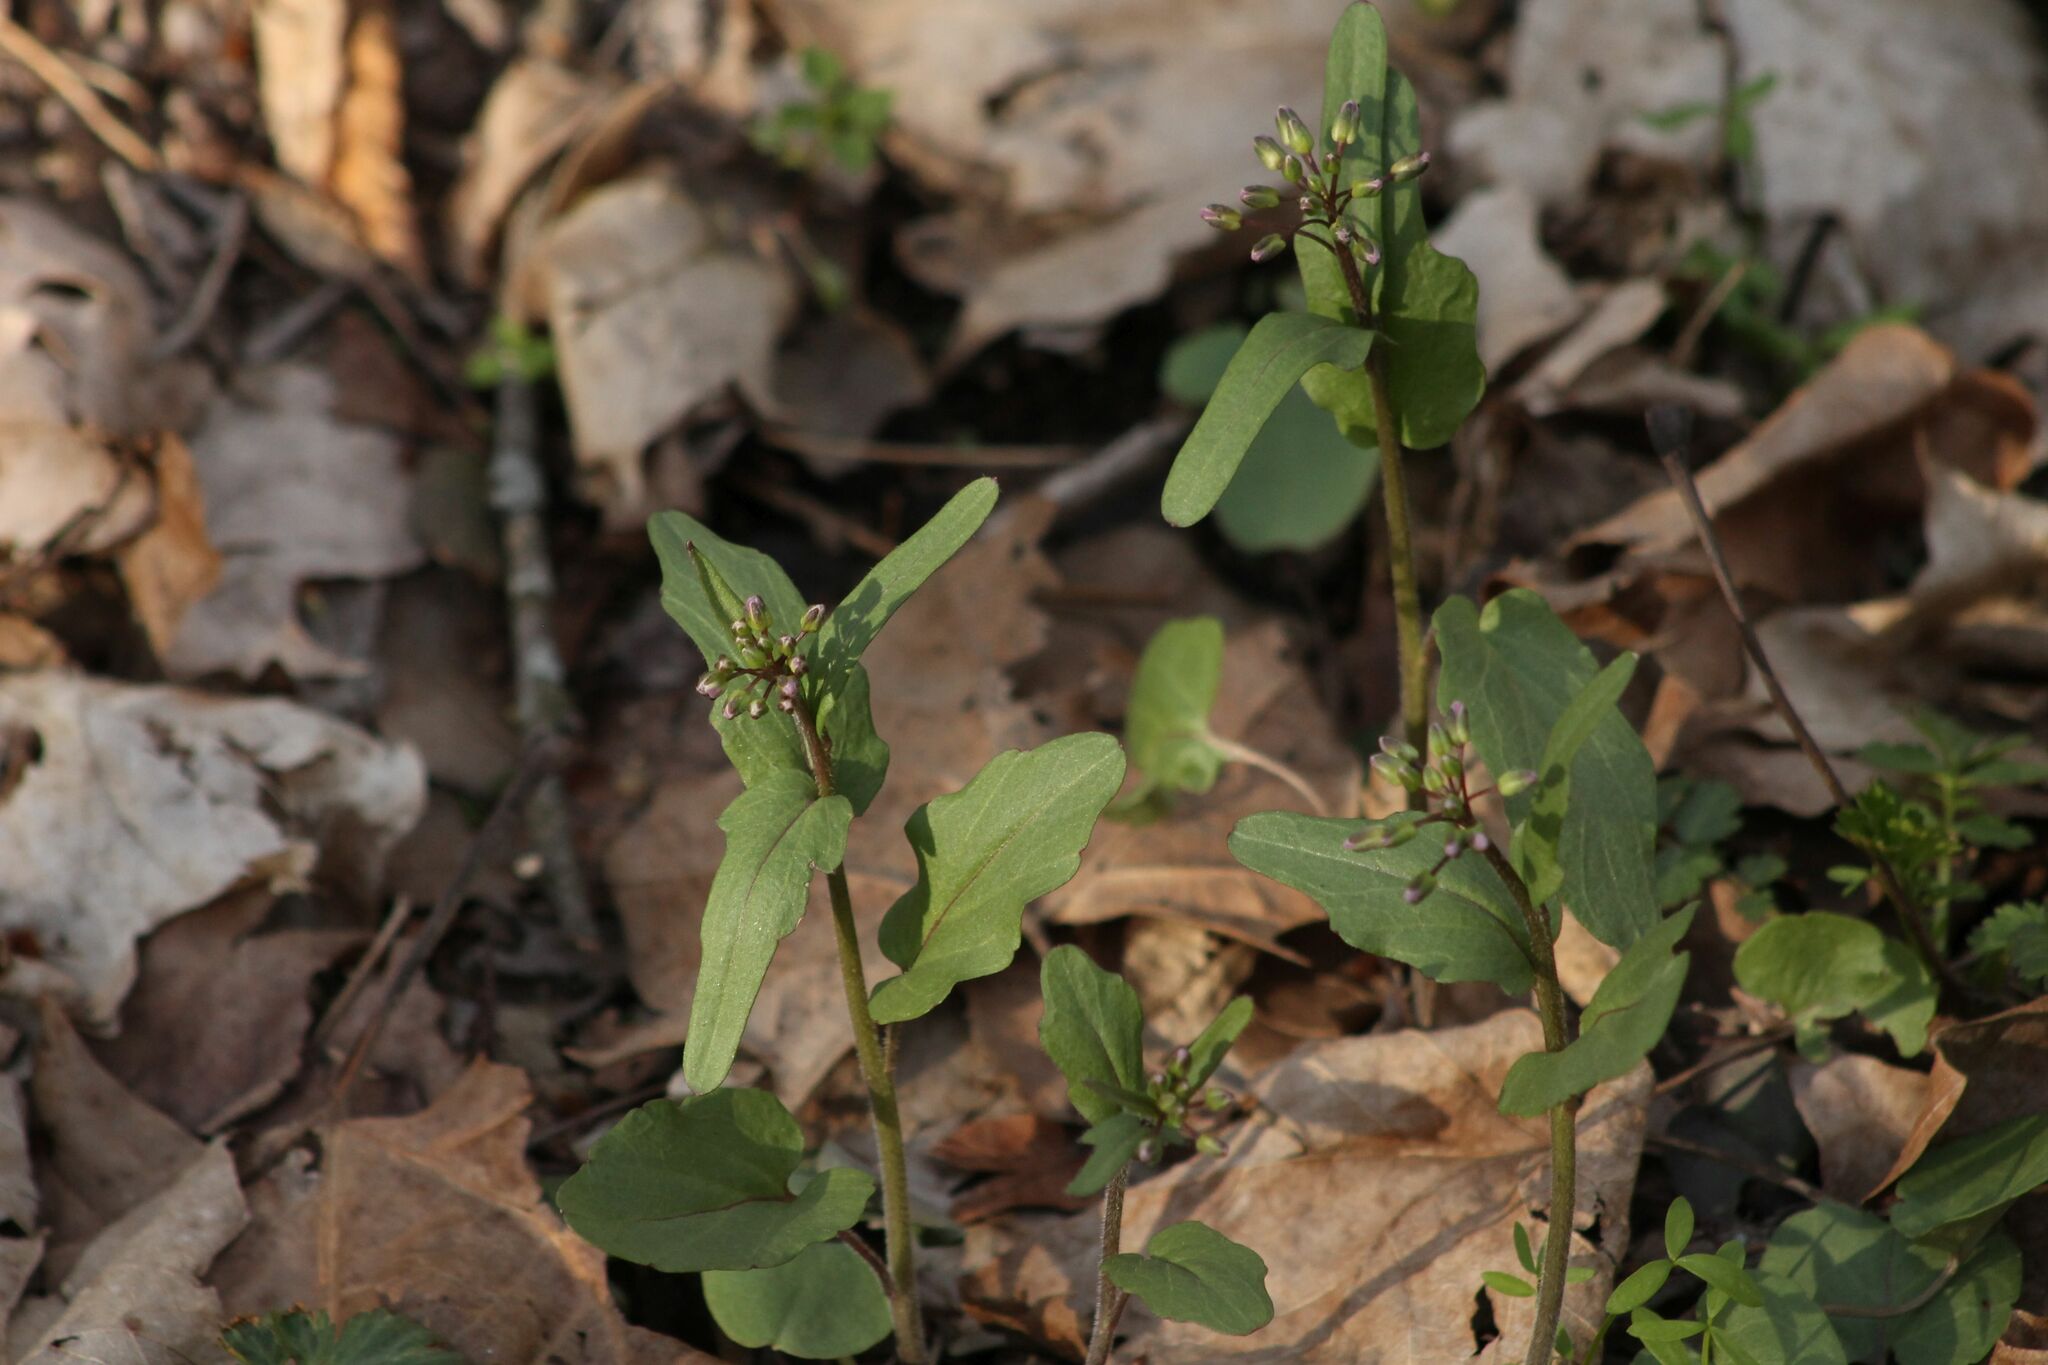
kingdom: Plantae
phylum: Tracheophyta
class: Magnoliopsida
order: Brassicales
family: Brassicaceae
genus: Cardamine
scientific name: Cardamine douglassii
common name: Purple cress
